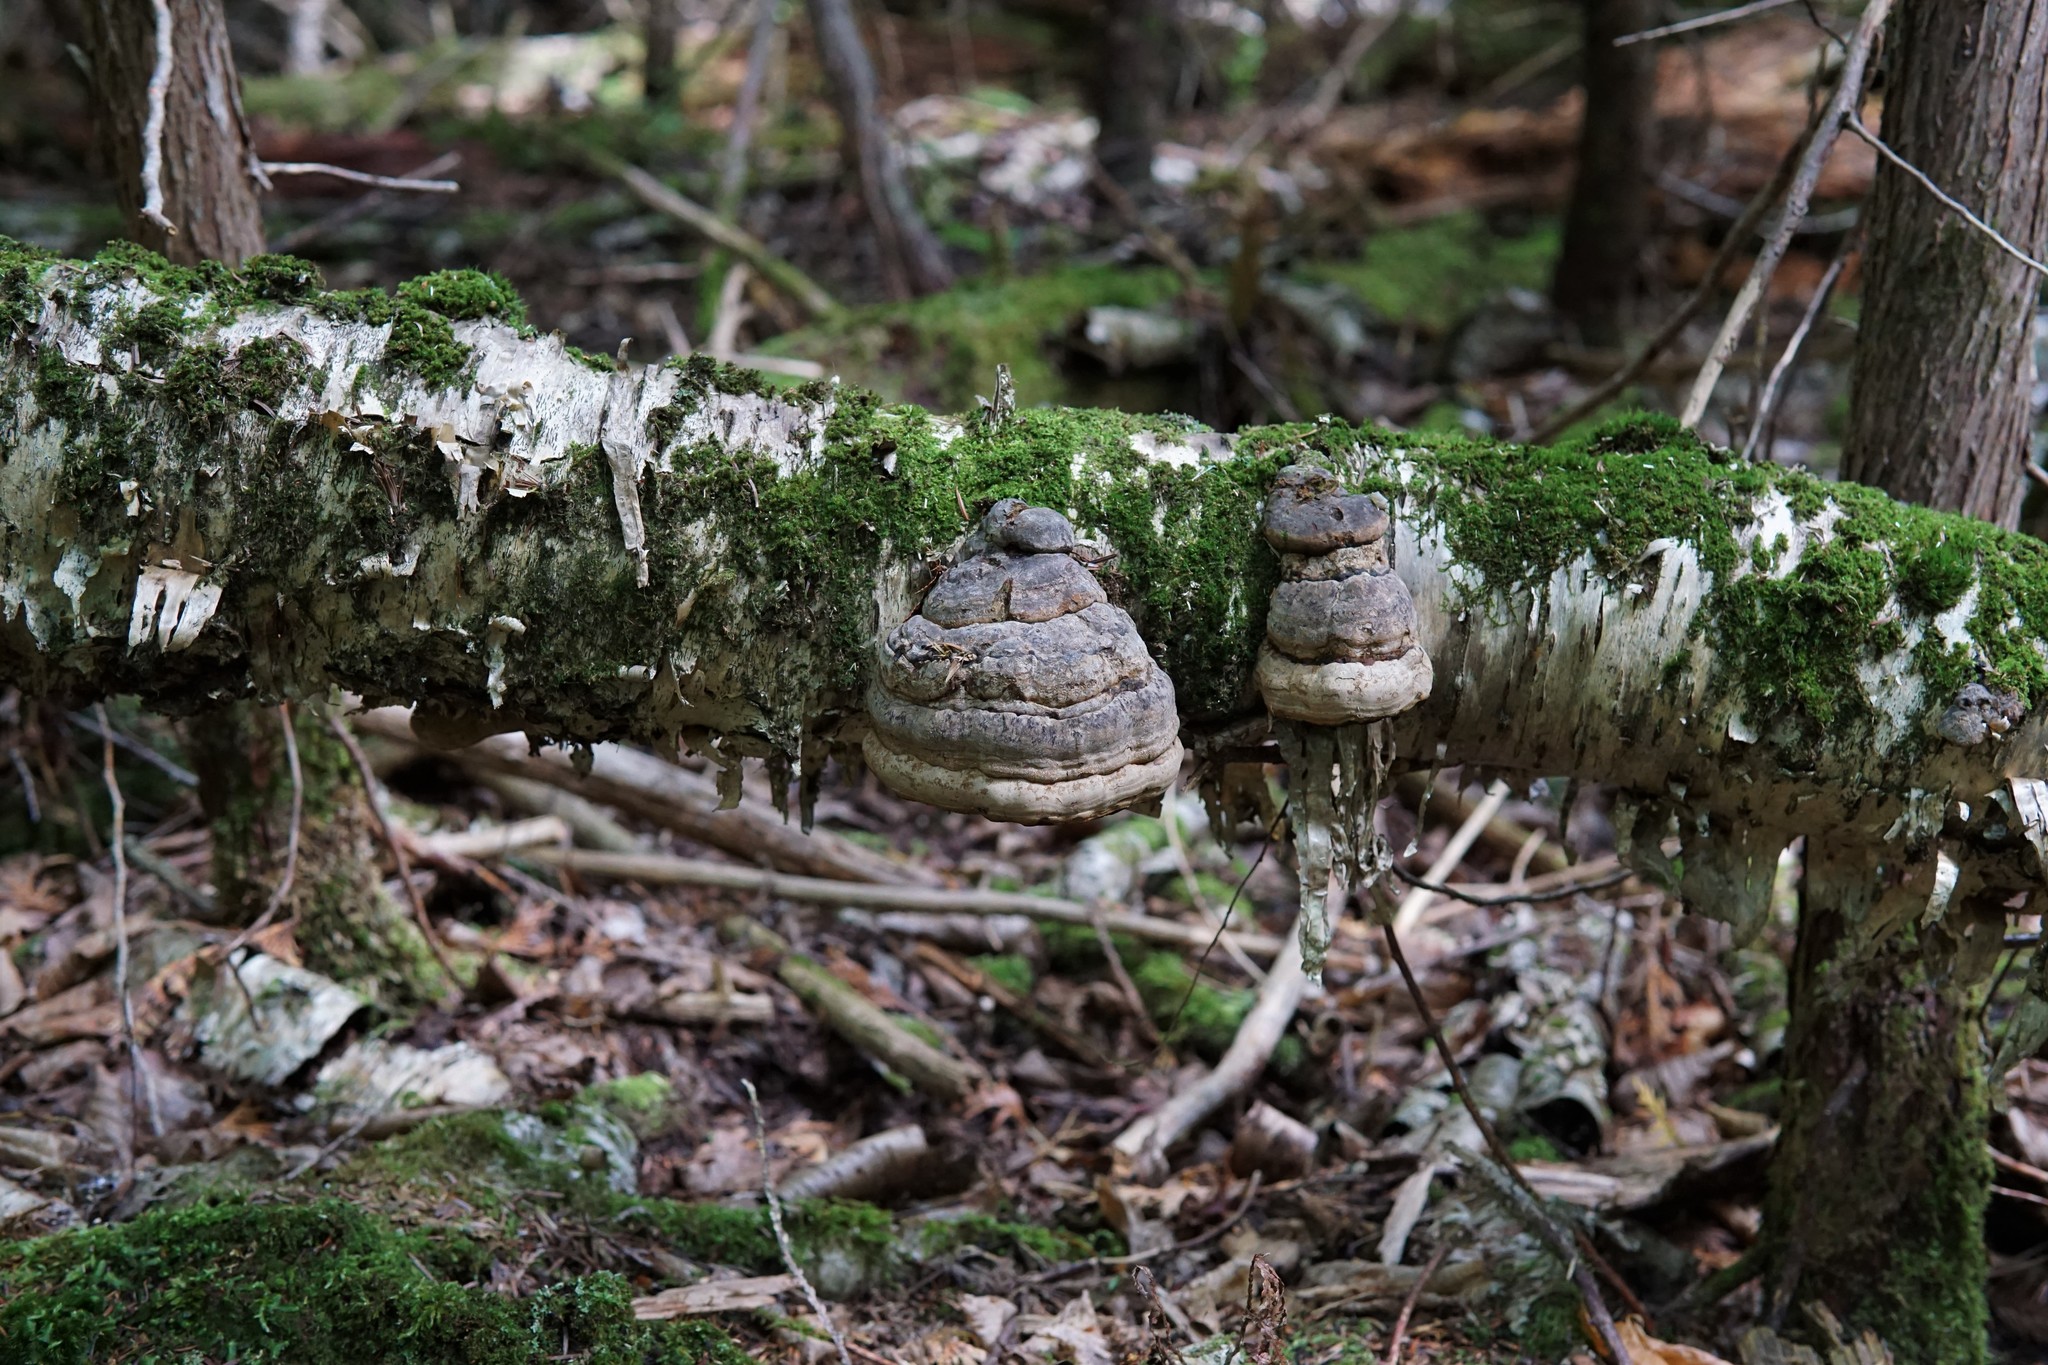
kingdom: Fungi
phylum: Basidiomycota
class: Agaricomycetes
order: Polyporales
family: Polyporaceae
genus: Fomes
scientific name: Fomes fomentarius
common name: Hoof fungus
